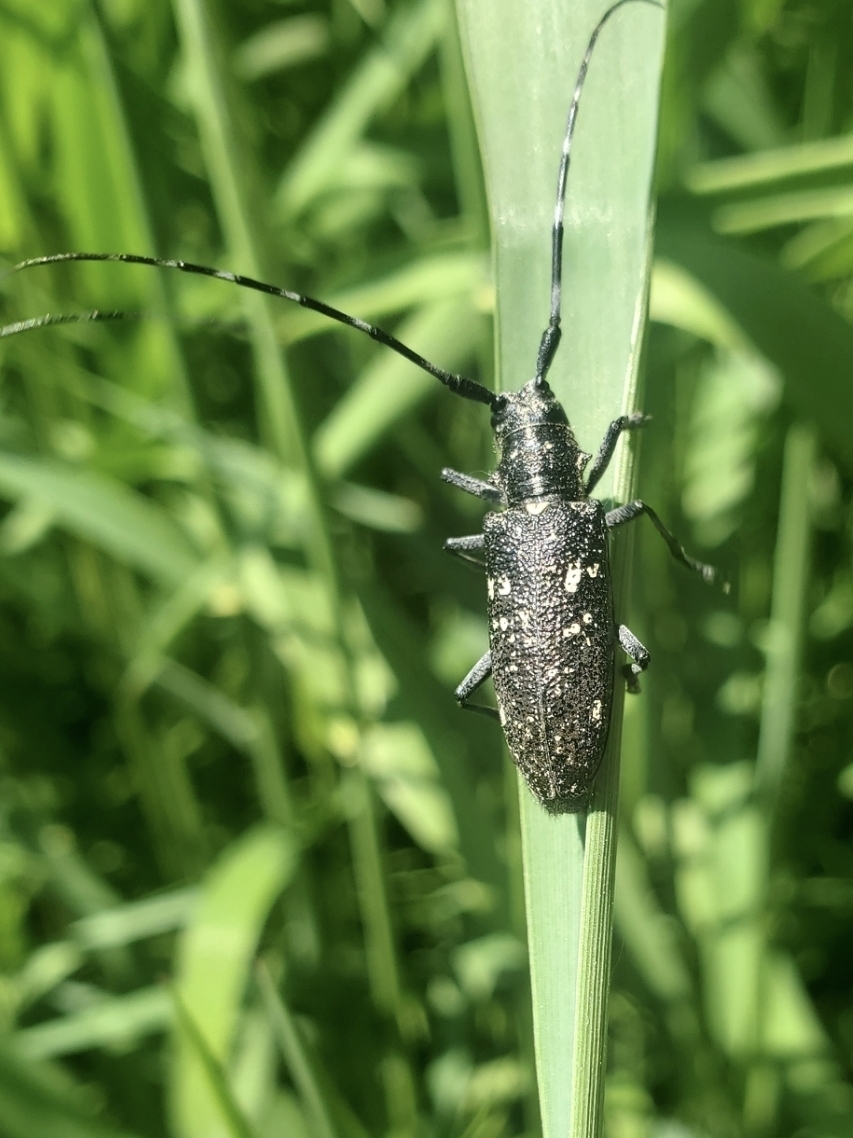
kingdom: Animalia
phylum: Arthropoda
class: Insecta
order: Coleoptera
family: Cerambycidae
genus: Monochamus
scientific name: Monochamus scutellatus
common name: White-spotted sawyer beetle
